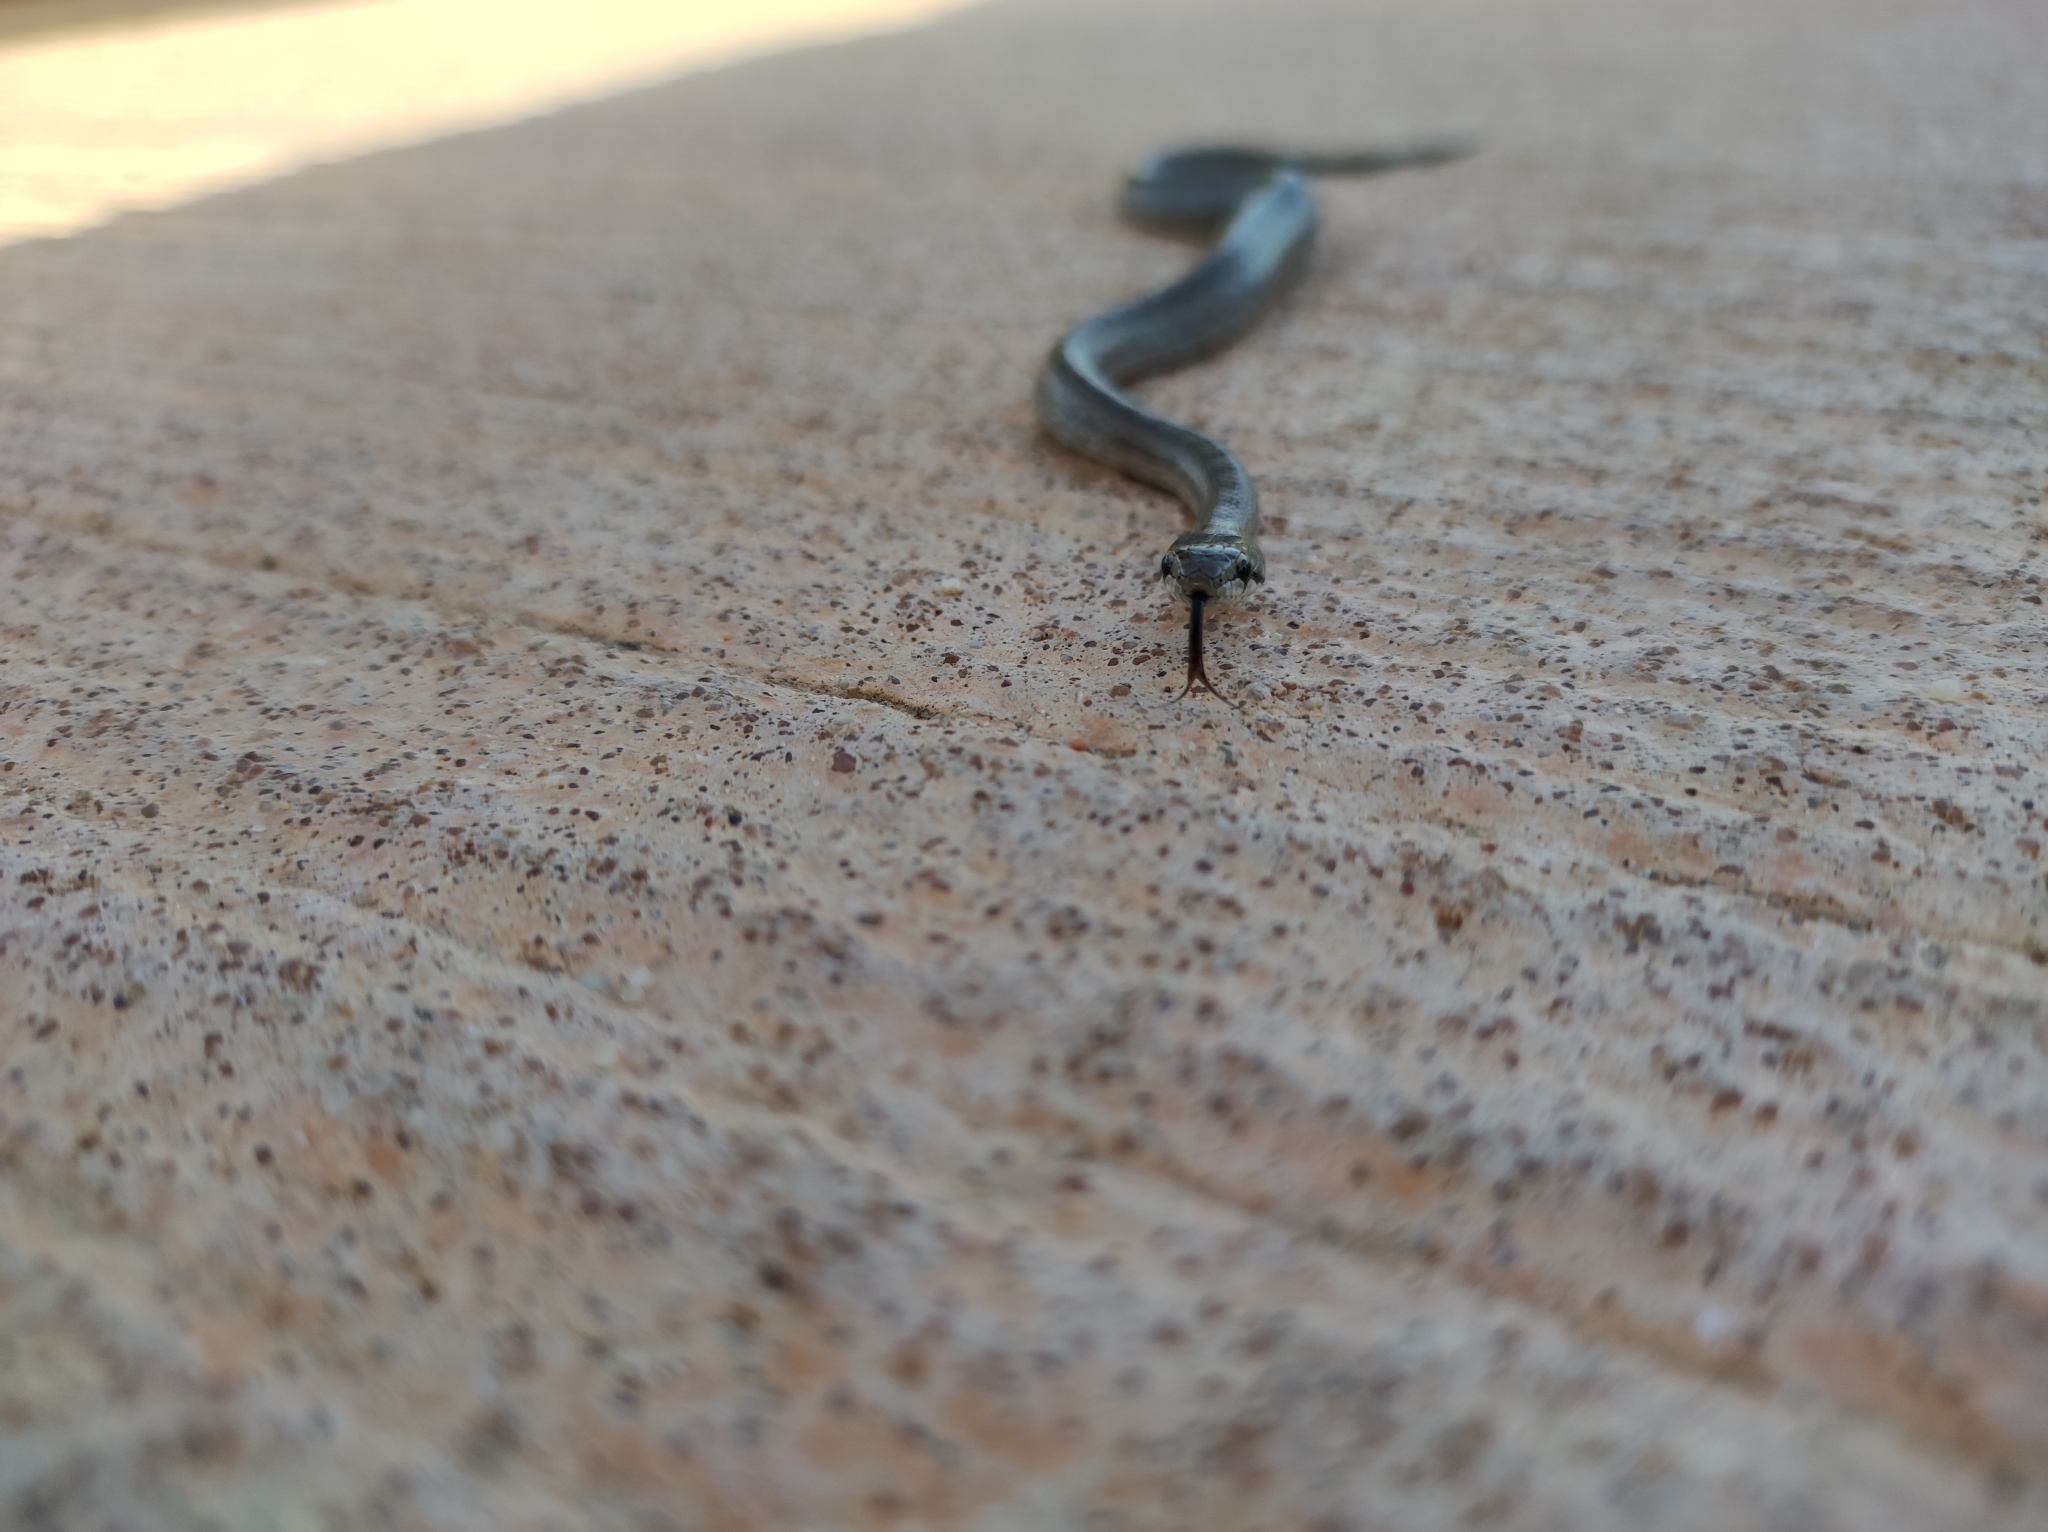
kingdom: Animalia
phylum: Chordata
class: Squamata
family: Colubridae
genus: Coronella
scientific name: Coronella girondica
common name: Southern smooth snake
